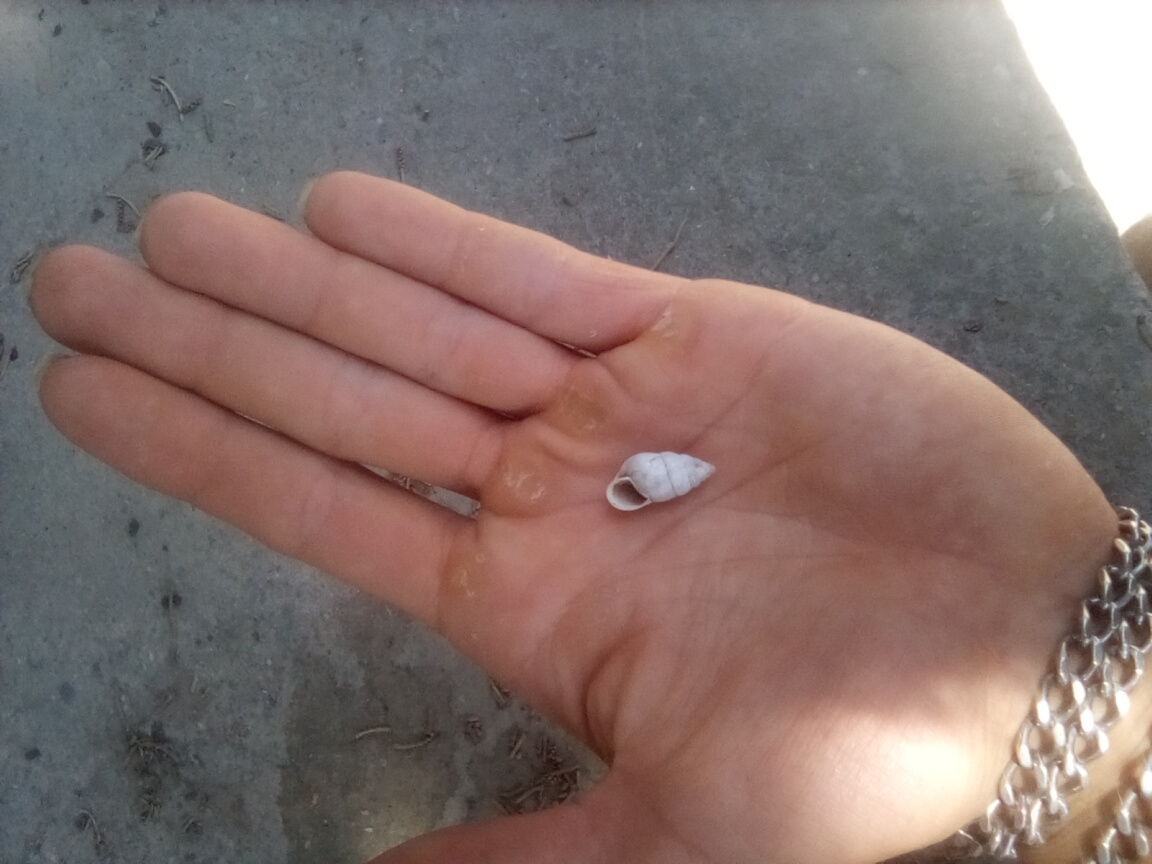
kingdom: Animalia
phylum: Mollusca
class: Gastropoda
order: Stylommatophora
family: Enidae
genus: Brephulopsis
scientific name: Brephulopsis cylindrica
